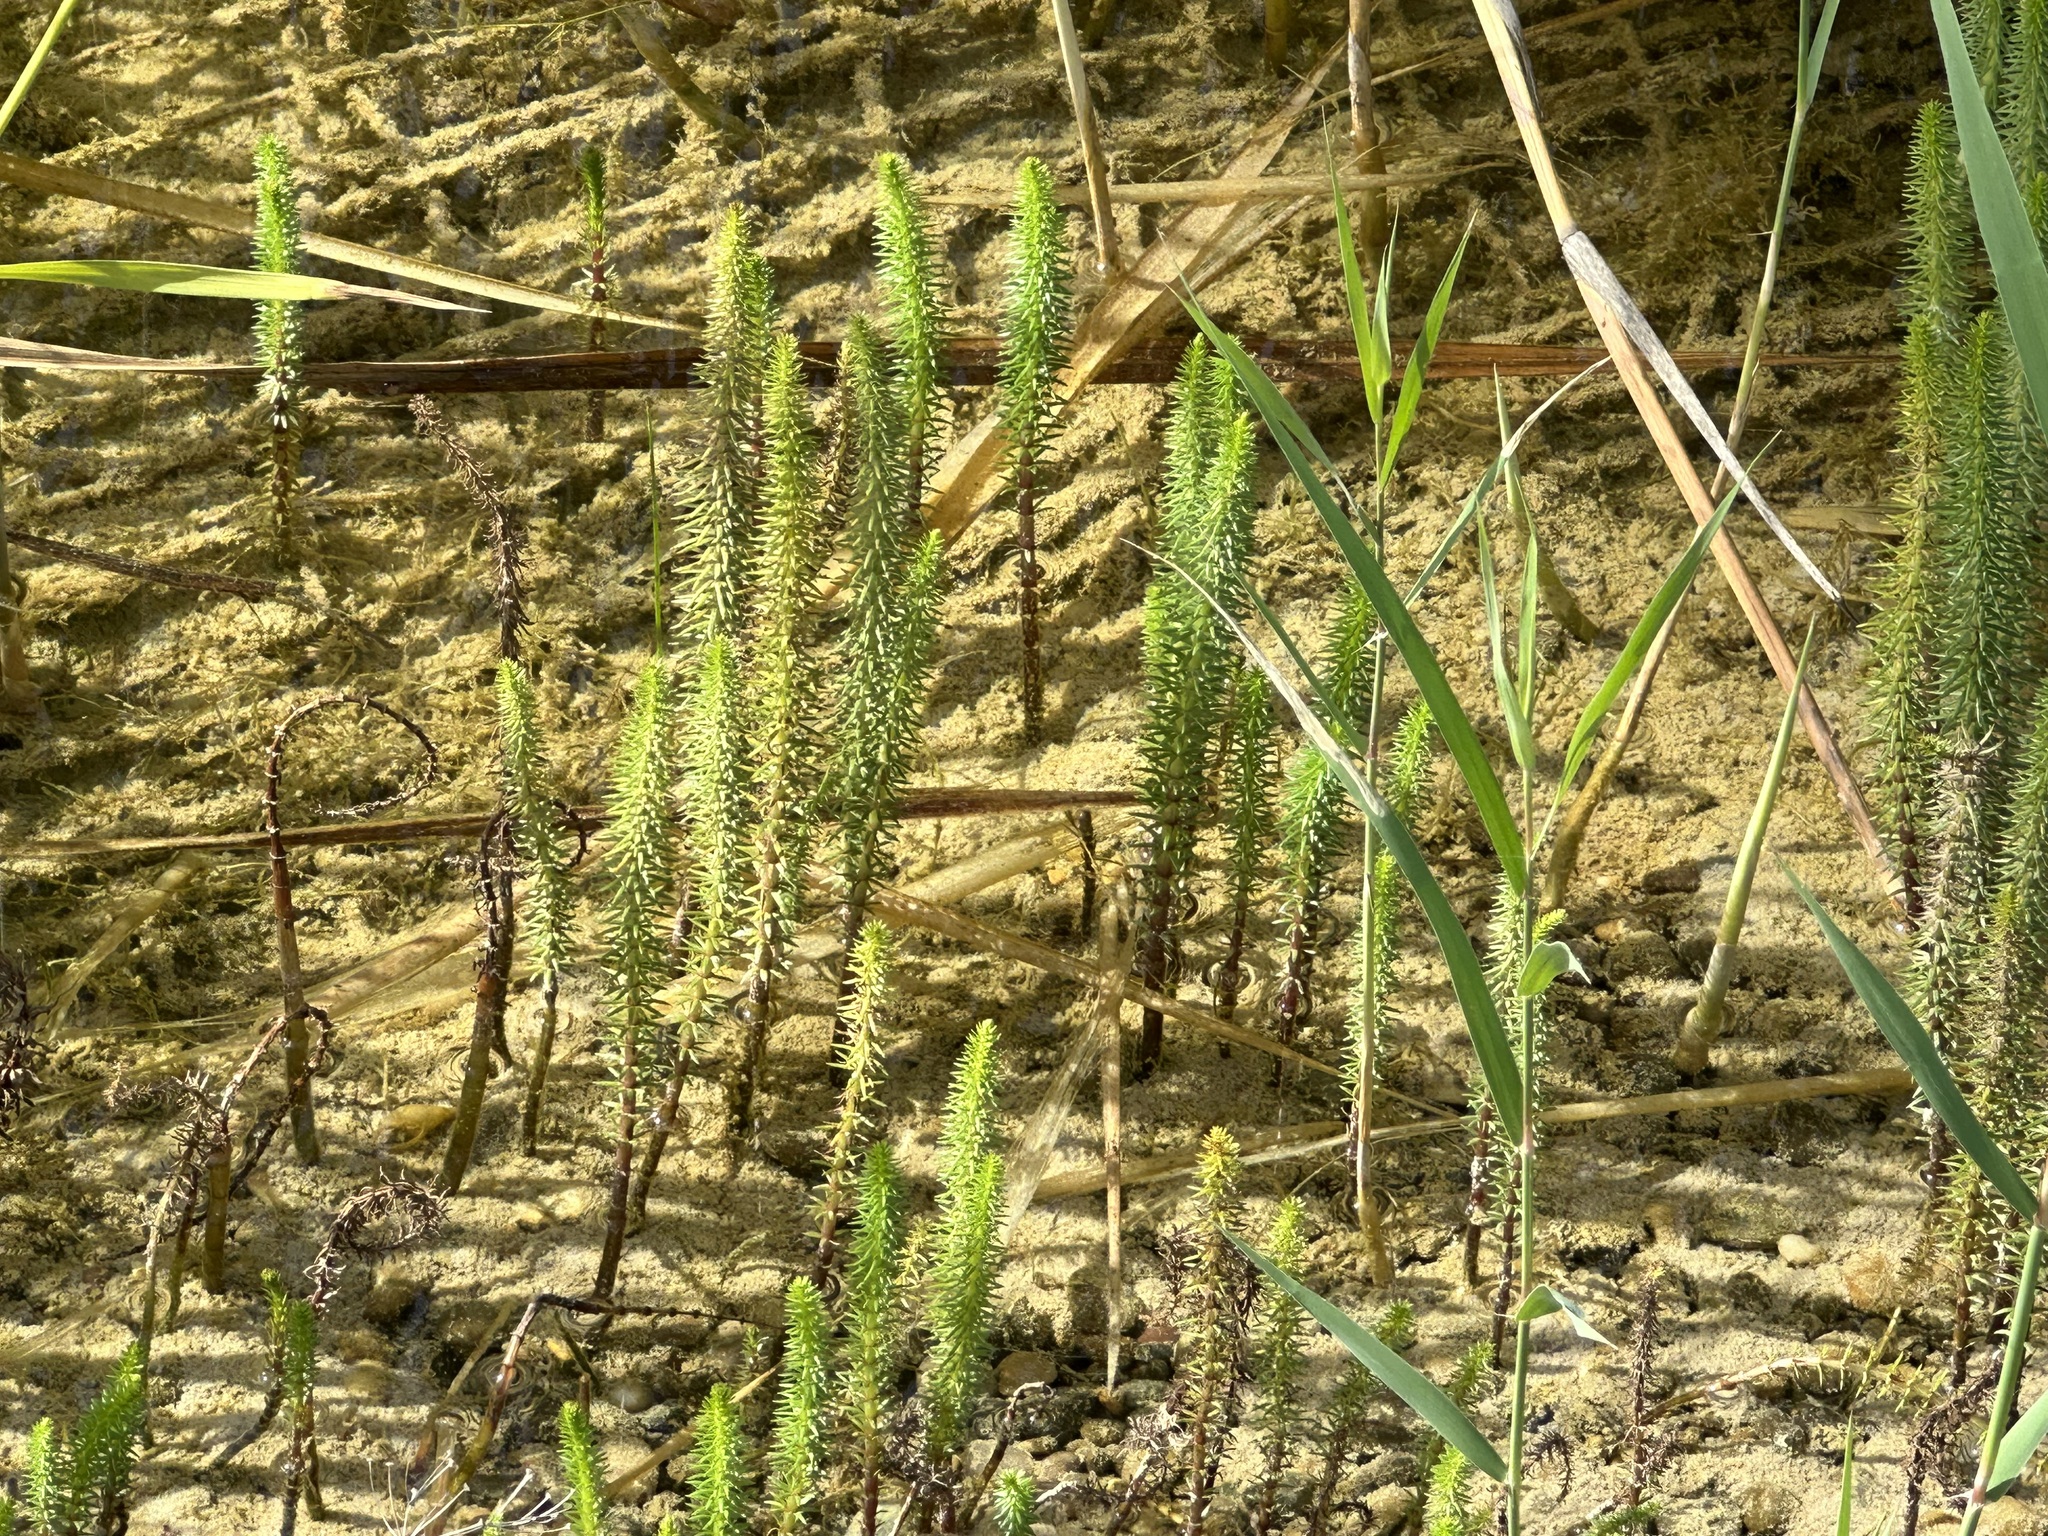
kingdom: Plantae
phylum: Tracheophyta
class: Magnoliopsida
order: Lamiales
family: Plantaginaceae
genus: Hippuris
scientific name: Hippuris vulgaris
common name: Mare's-tail
